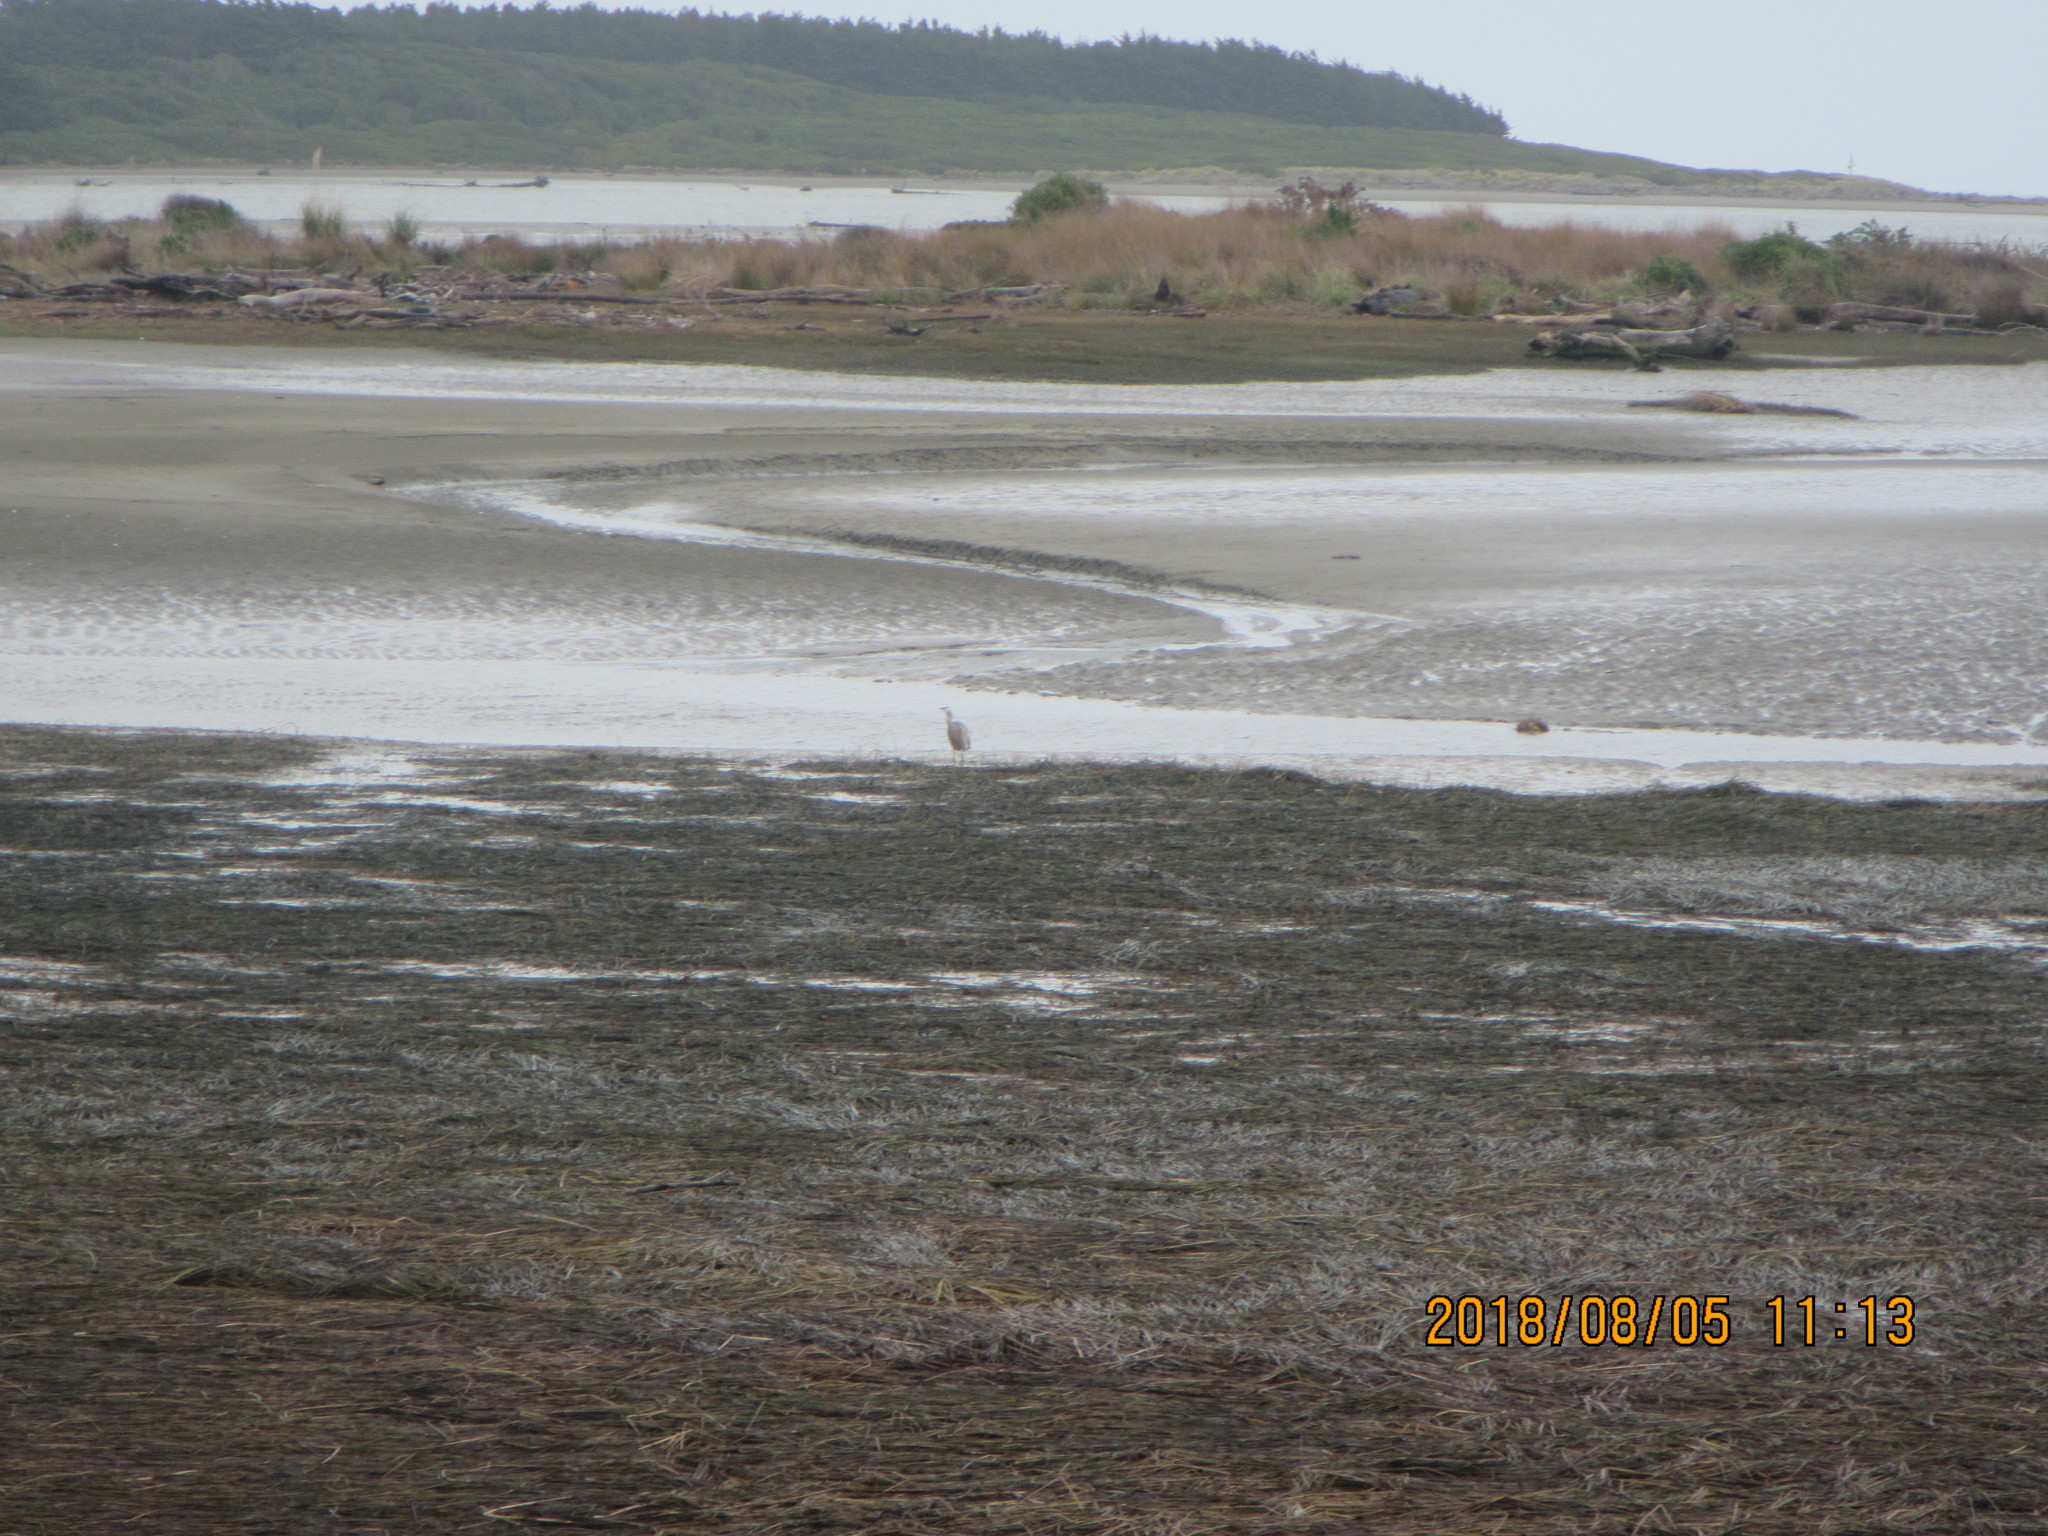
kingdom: Animalia
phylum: Chordata
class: Aves
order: Pelecaniformes
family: Ardeidae
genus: Egretta
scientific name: Egretta novaehollandiae
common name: White-faced heron
